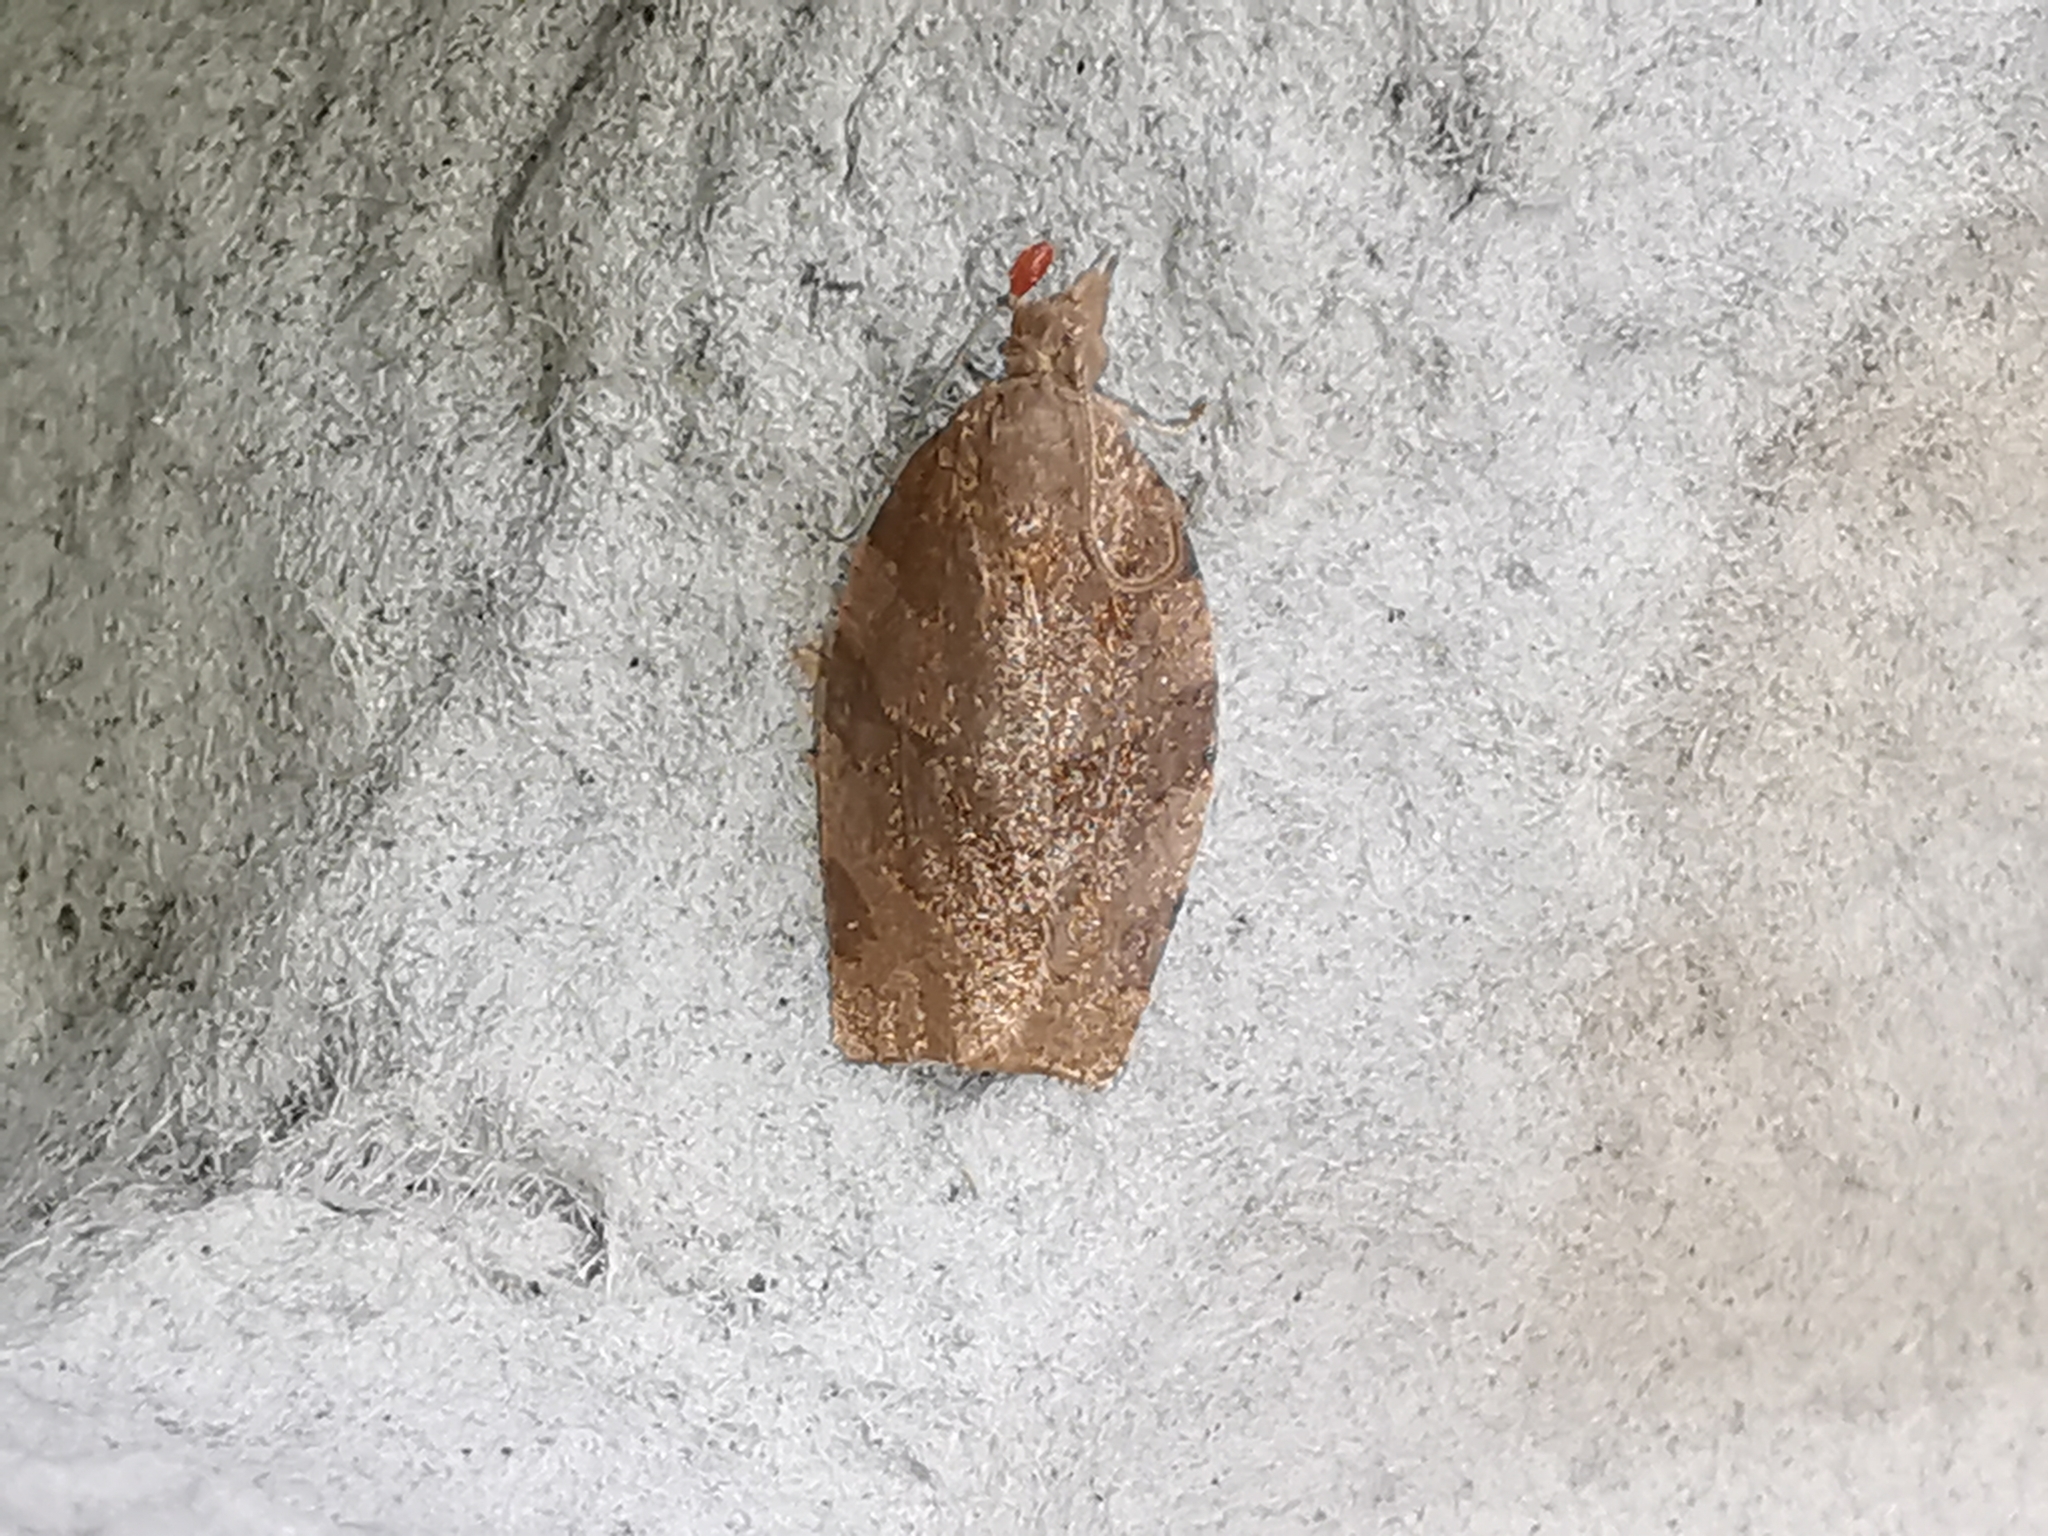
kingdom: Animalia
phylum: Arthropoda
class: Insecta
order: Lepidoptera
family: Tortricidae
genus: Pandemis
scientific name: Pandemis heparana
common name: Dark fruit-tree tortrix
